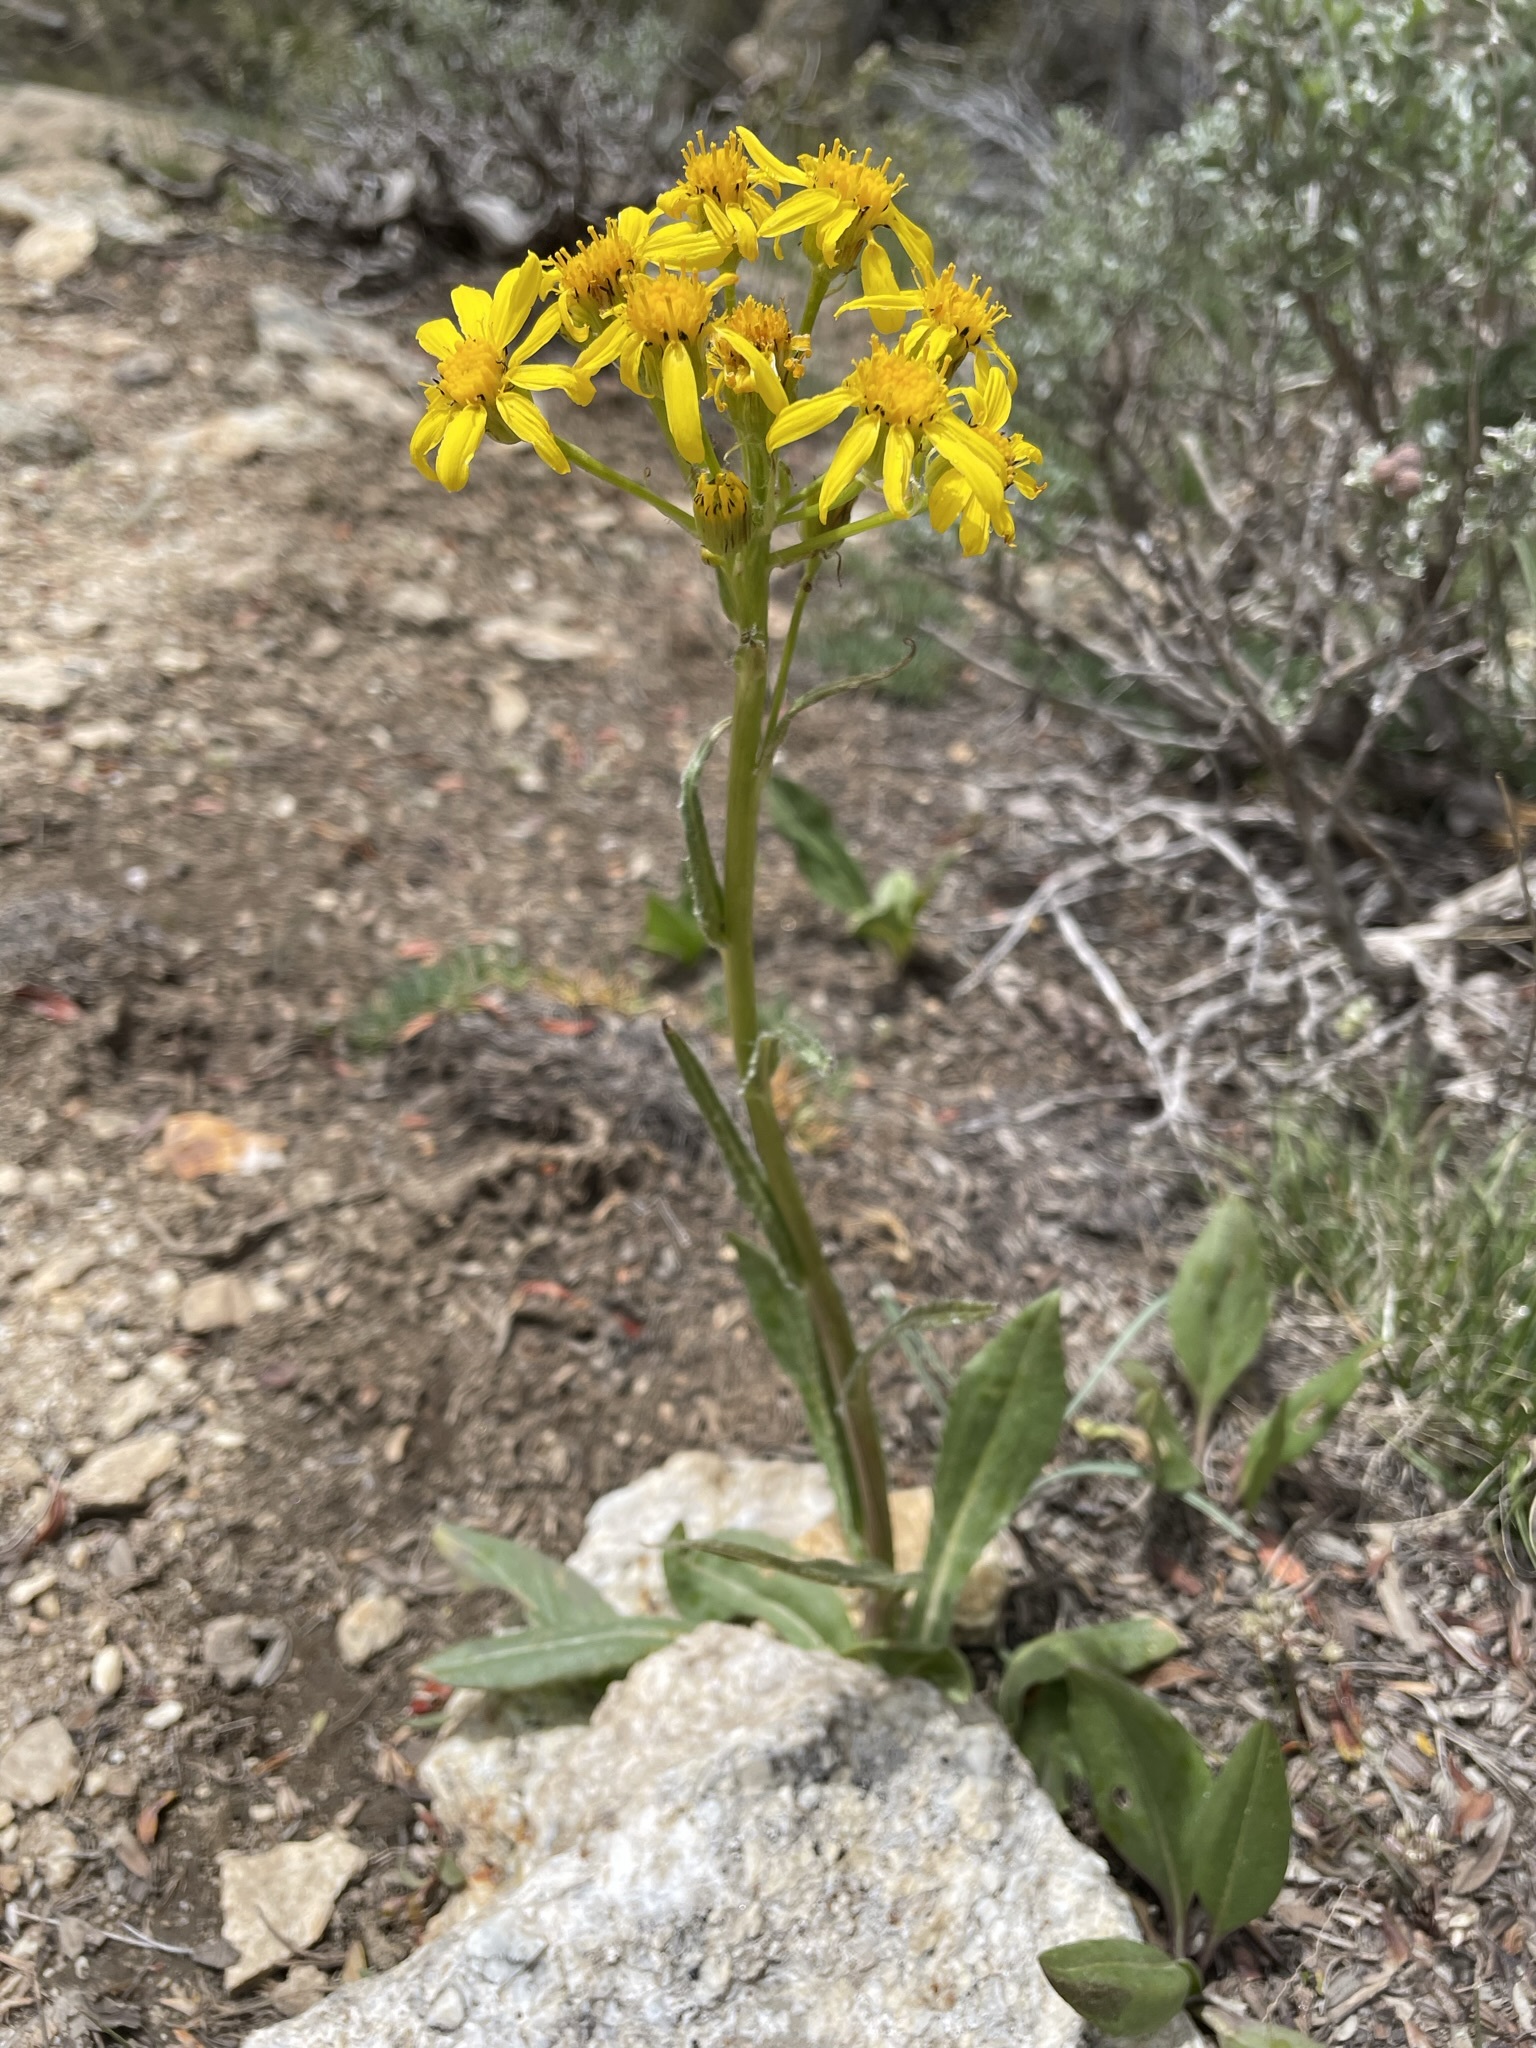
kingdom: Plantae
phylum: Tracheophyta
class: Magnoliopsida
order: Asterales
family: Asteraceae
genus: Senecio
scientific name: Senecio integerrimus
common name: Gaugeplant
